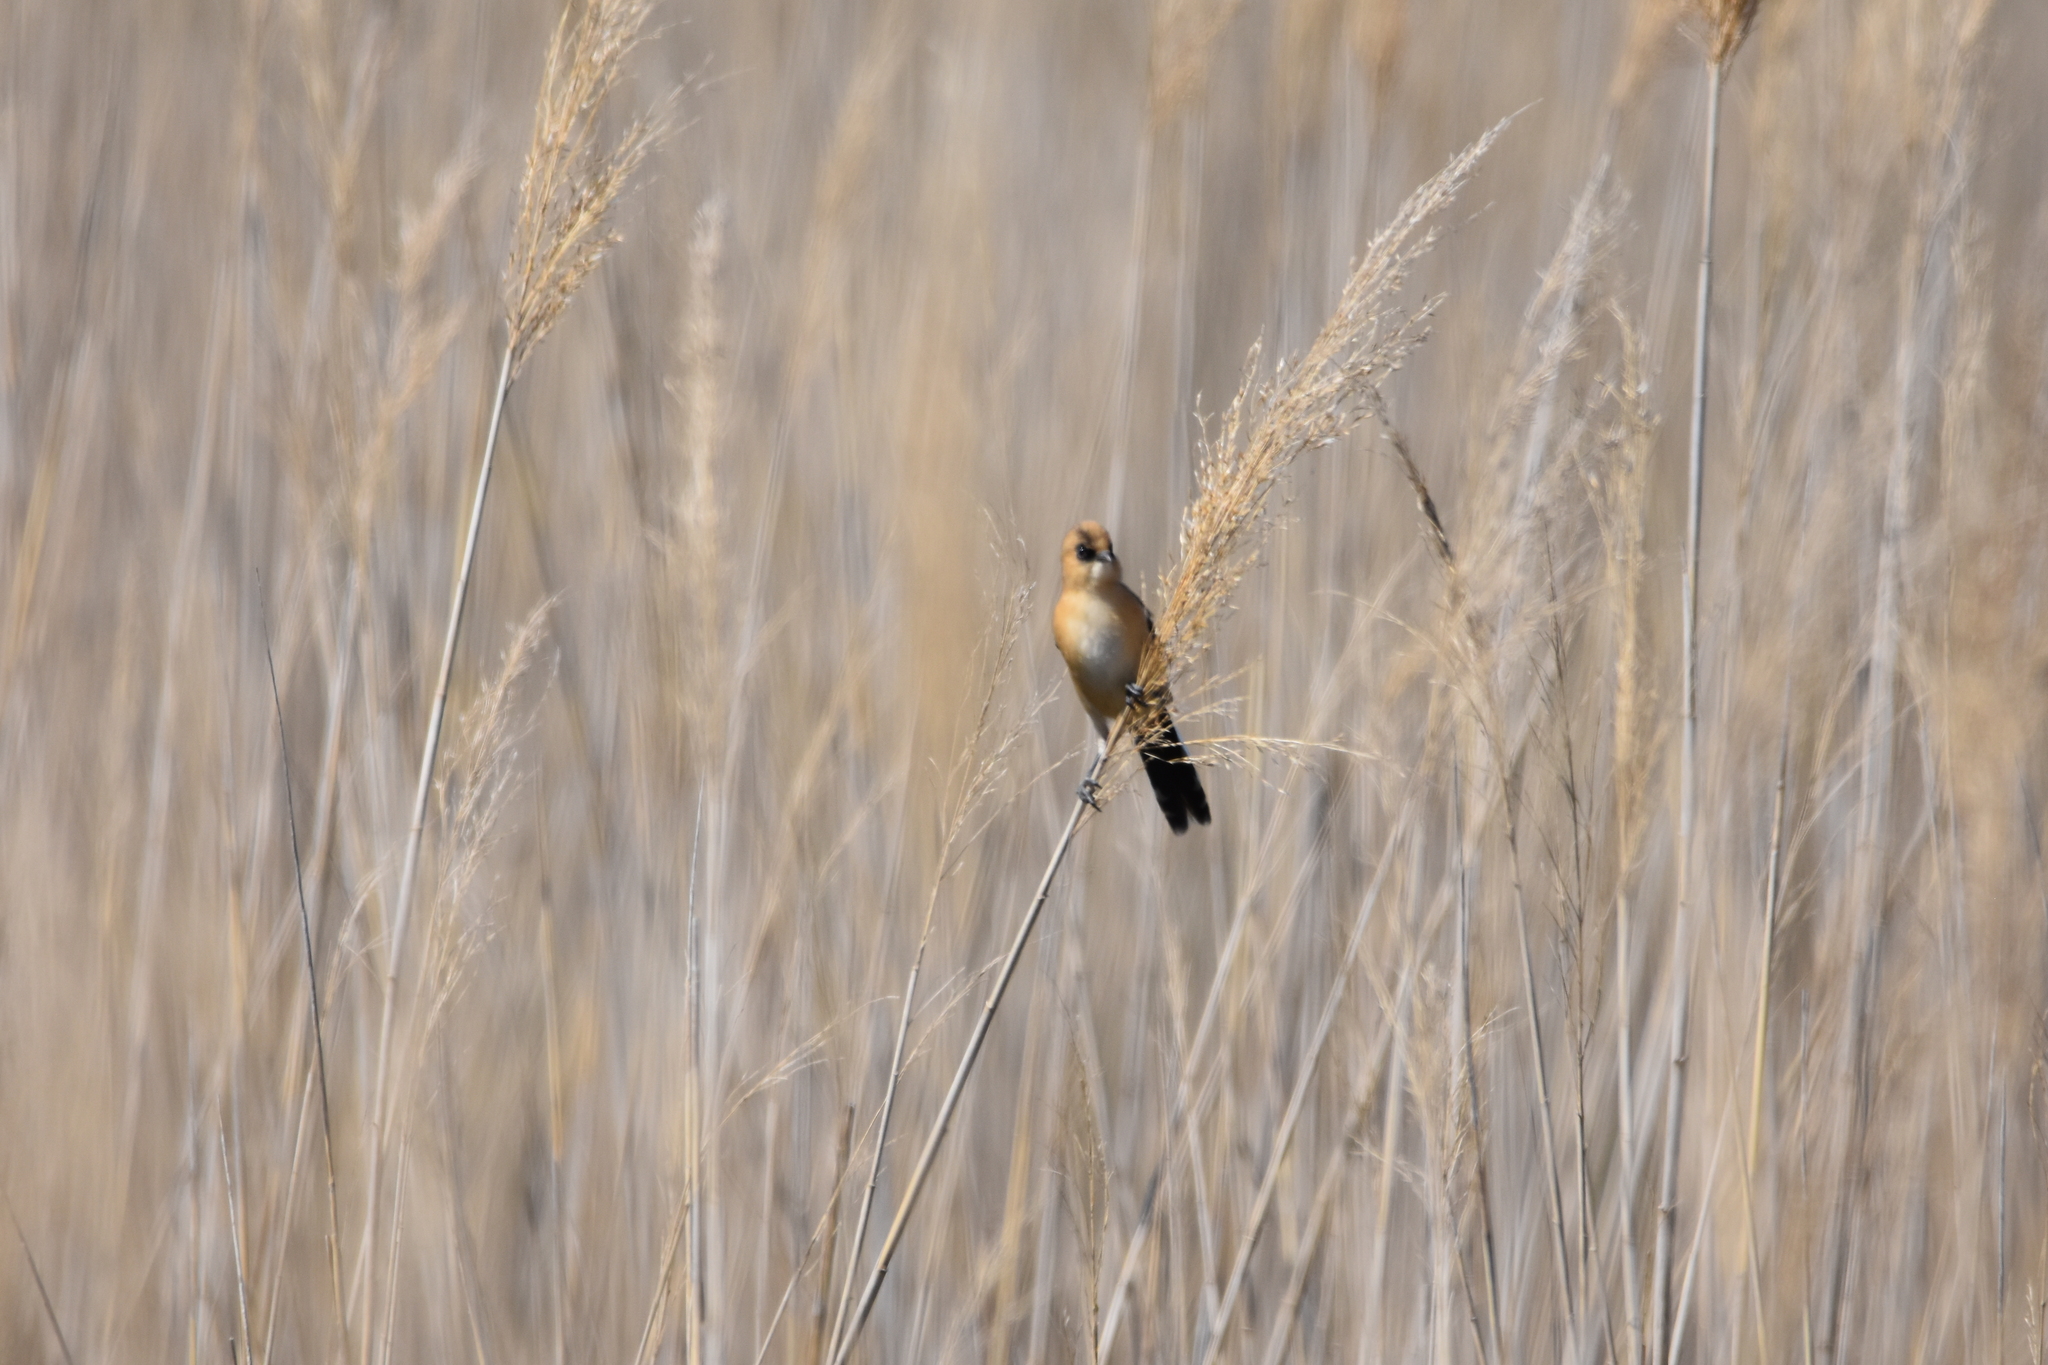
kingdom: Animalia
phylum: Chordata
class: Aves
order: Passeriformes
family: Panuridae
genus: Panurus
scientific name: Panurus biarmicus
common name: Bearded reedling
